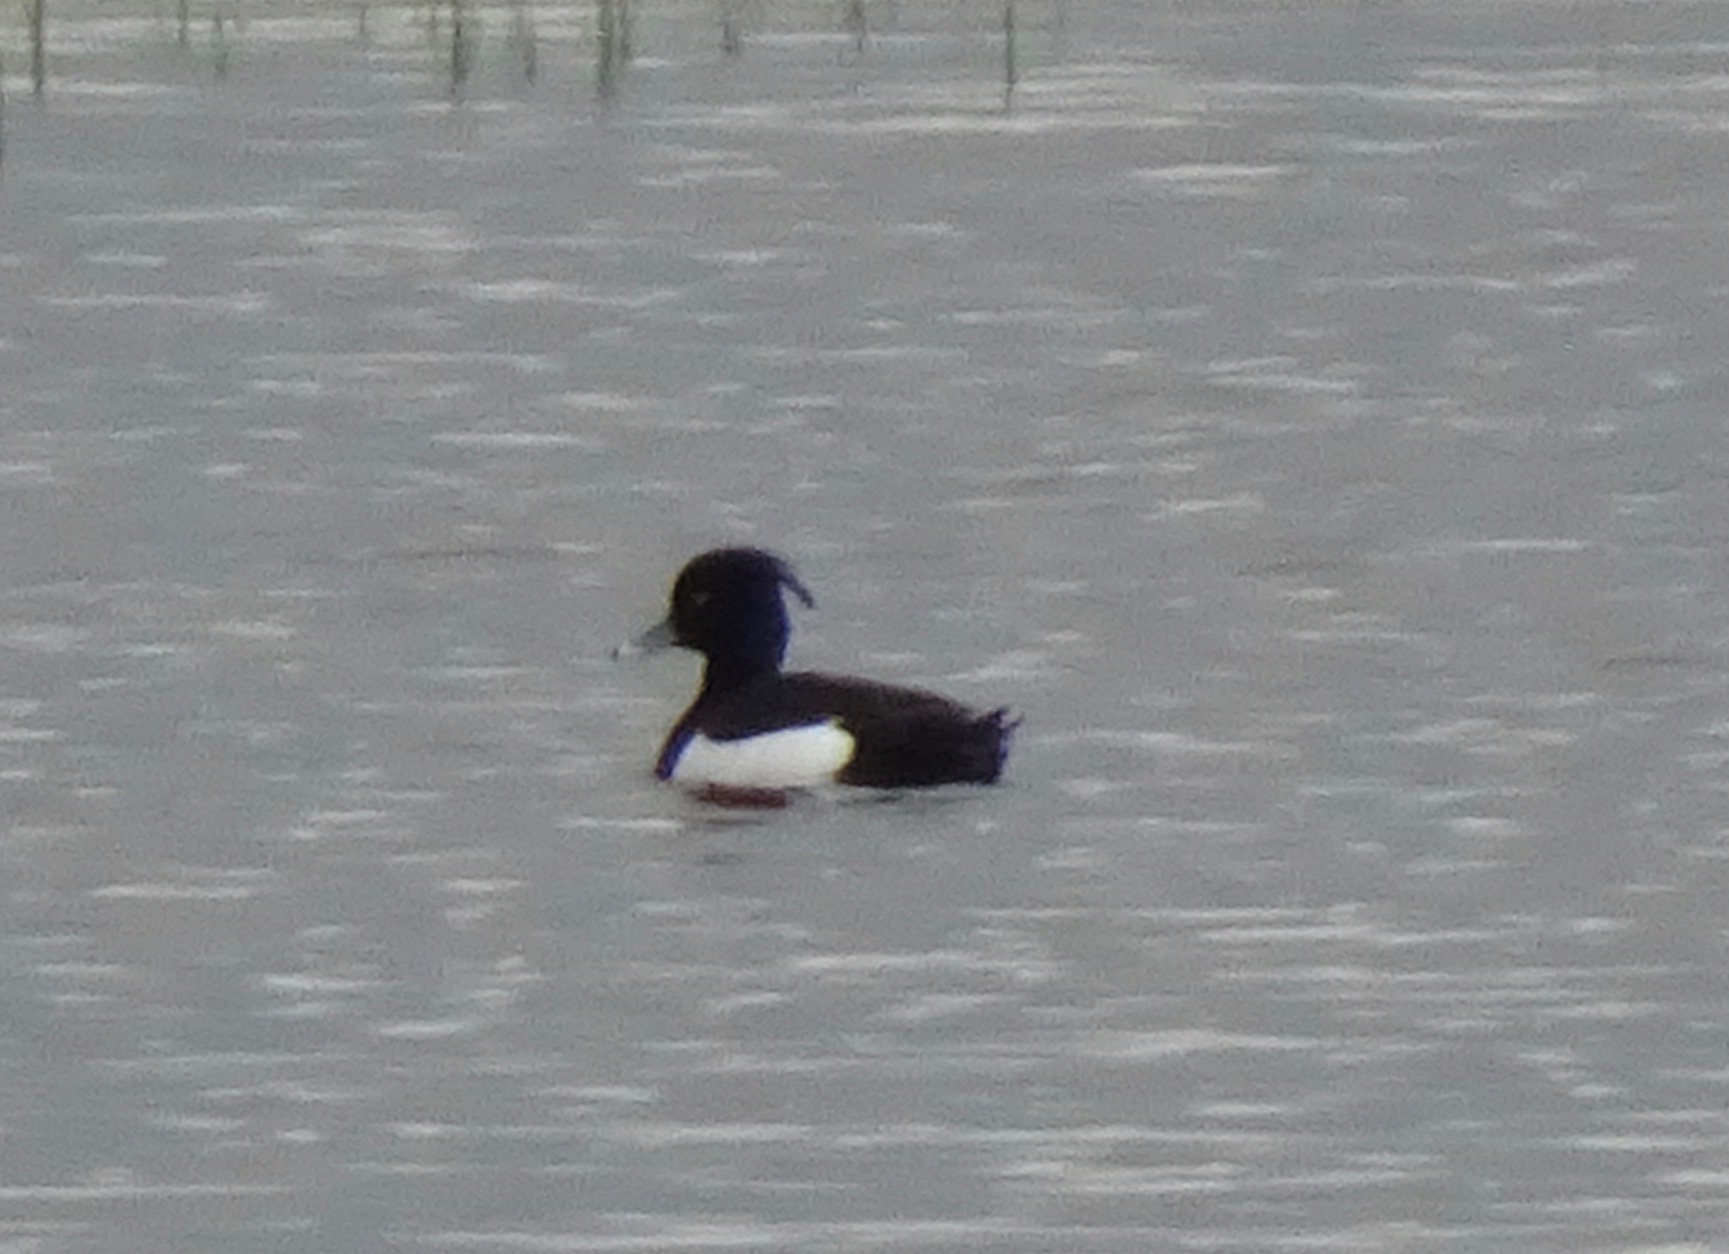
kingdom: Animalia
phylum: Chordata
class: Aves
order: Anseriformes
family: Anatidae
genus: Aythya
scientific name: Aythya fuligula
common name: Tufted duck
